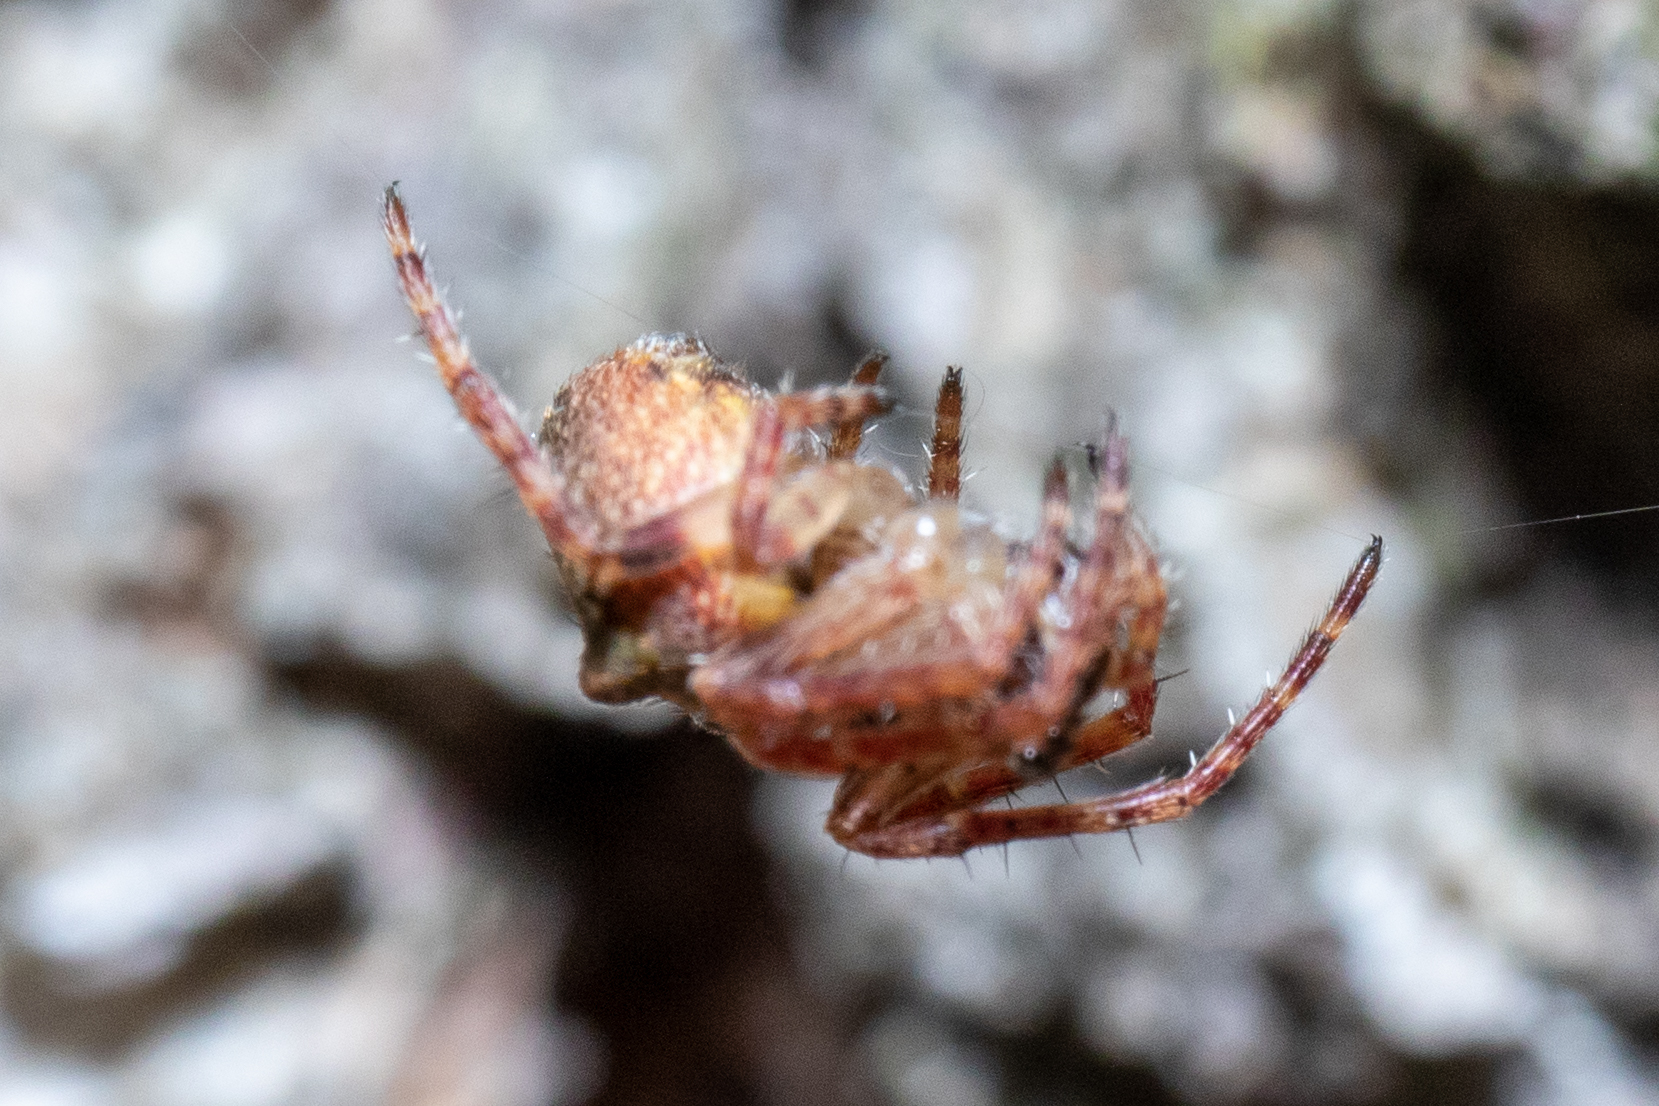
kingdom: Animalia
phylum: Arthropoda
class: Arachnida
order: Araneae
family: Araneidae
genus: Gibbaranea
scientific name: Gibbaranea gibbosa
